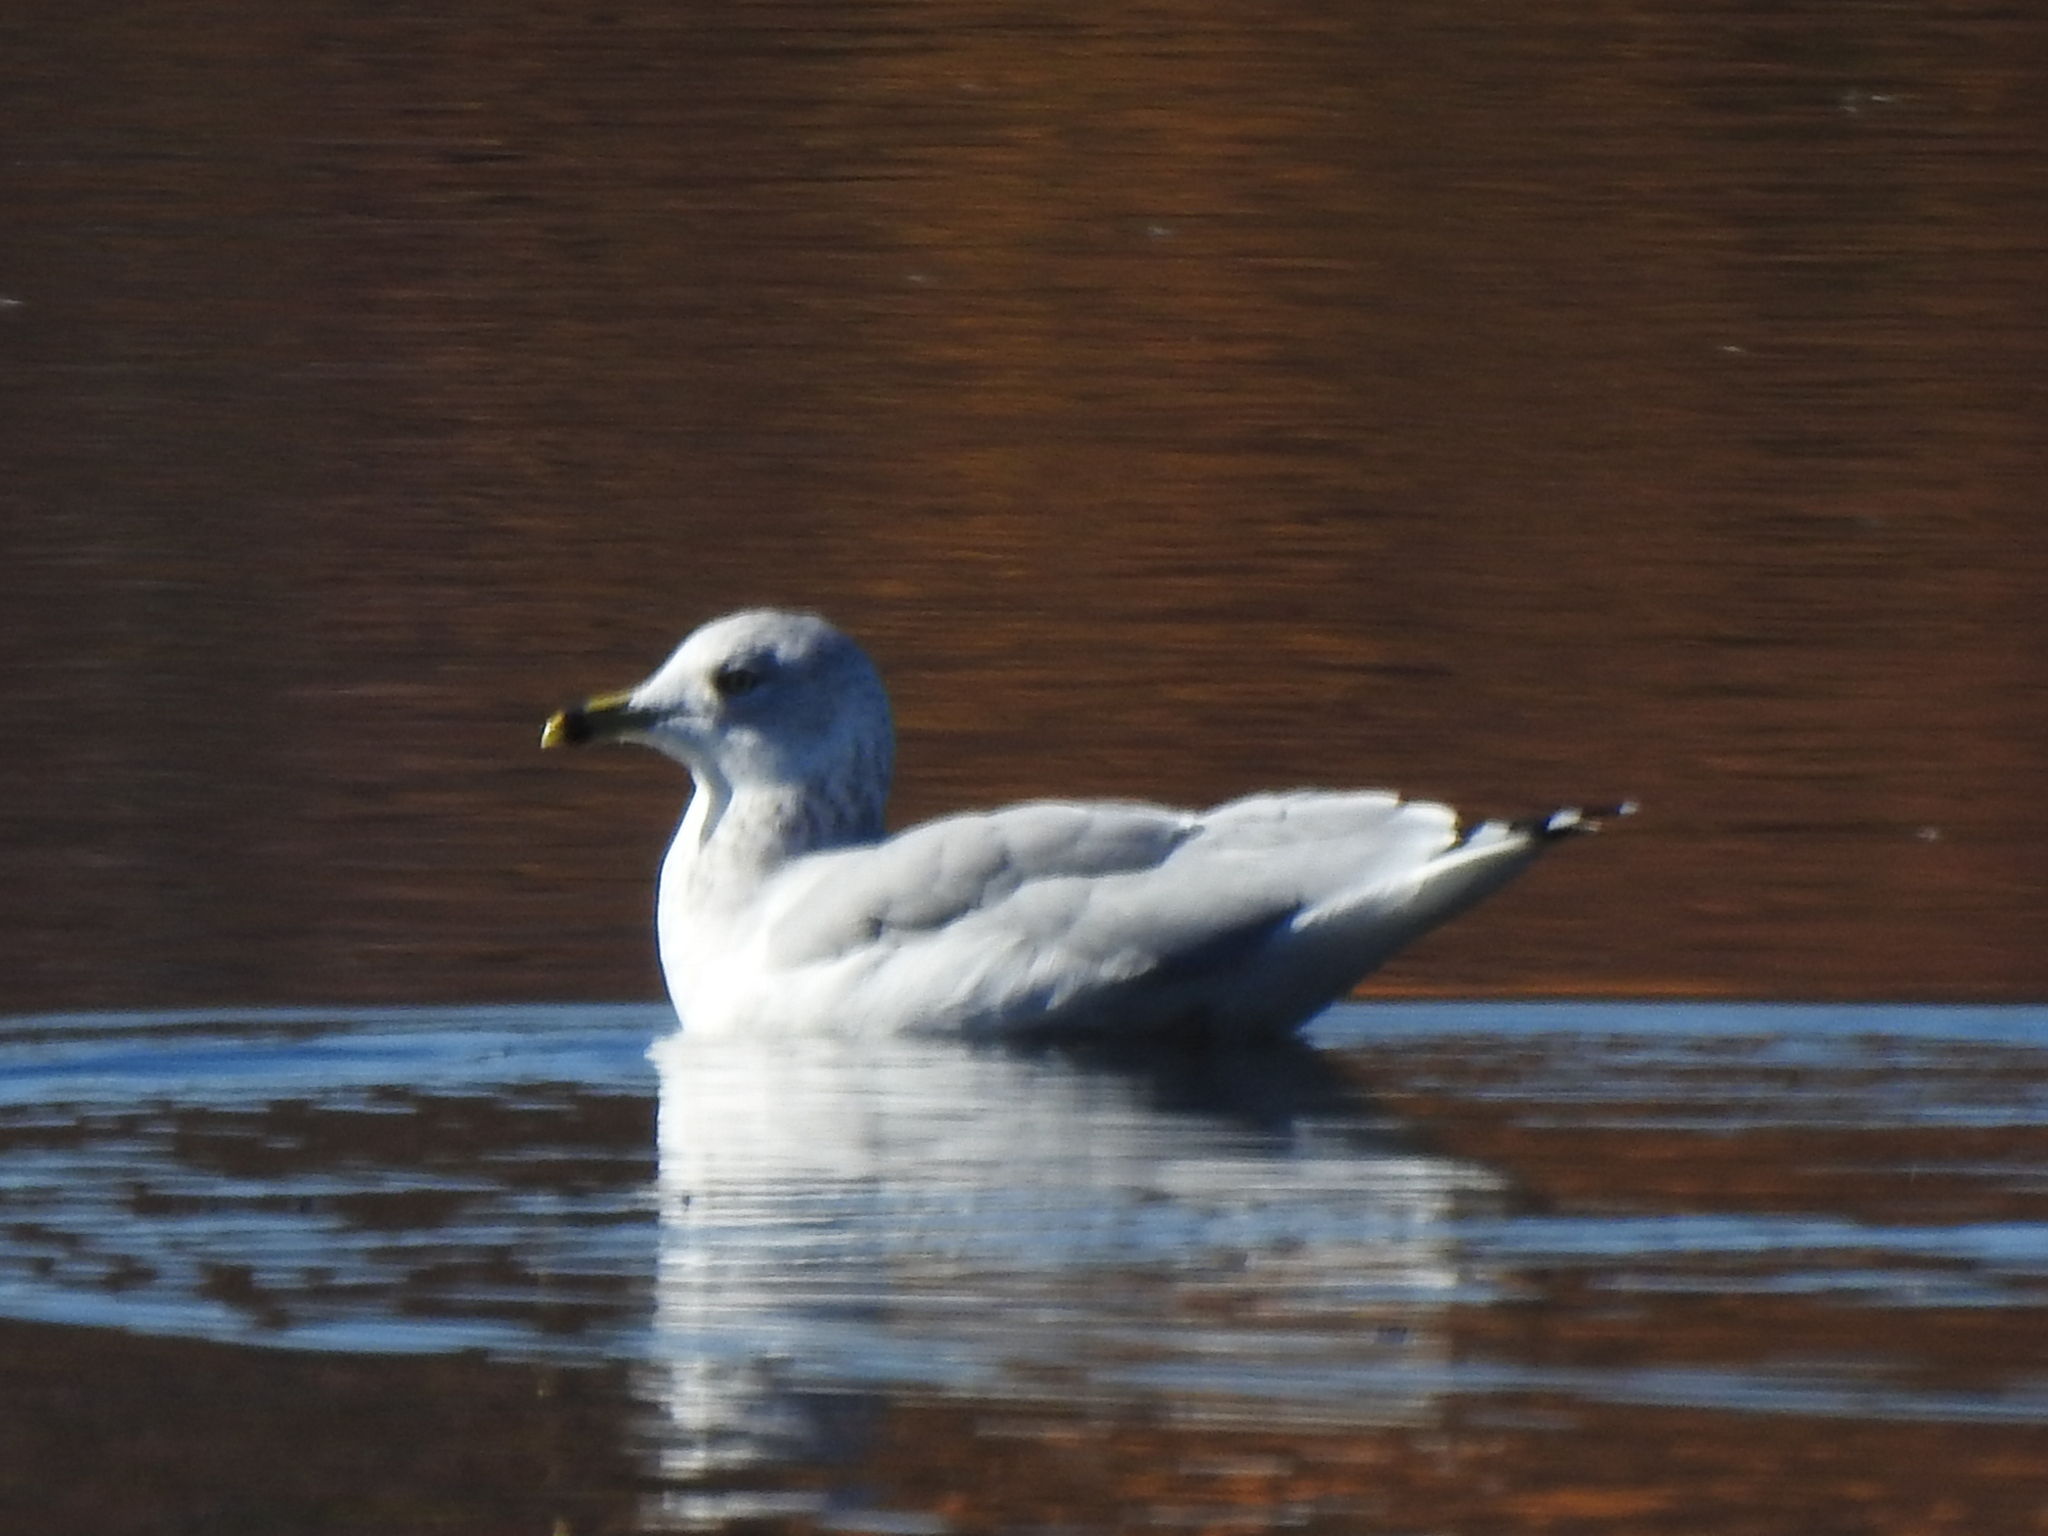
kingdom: Animalia
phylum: Chordata
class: Aves
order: Charadriiformes
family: Laridae
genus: Larus
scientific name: Larus delawarensis
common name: Ring-billed gull
